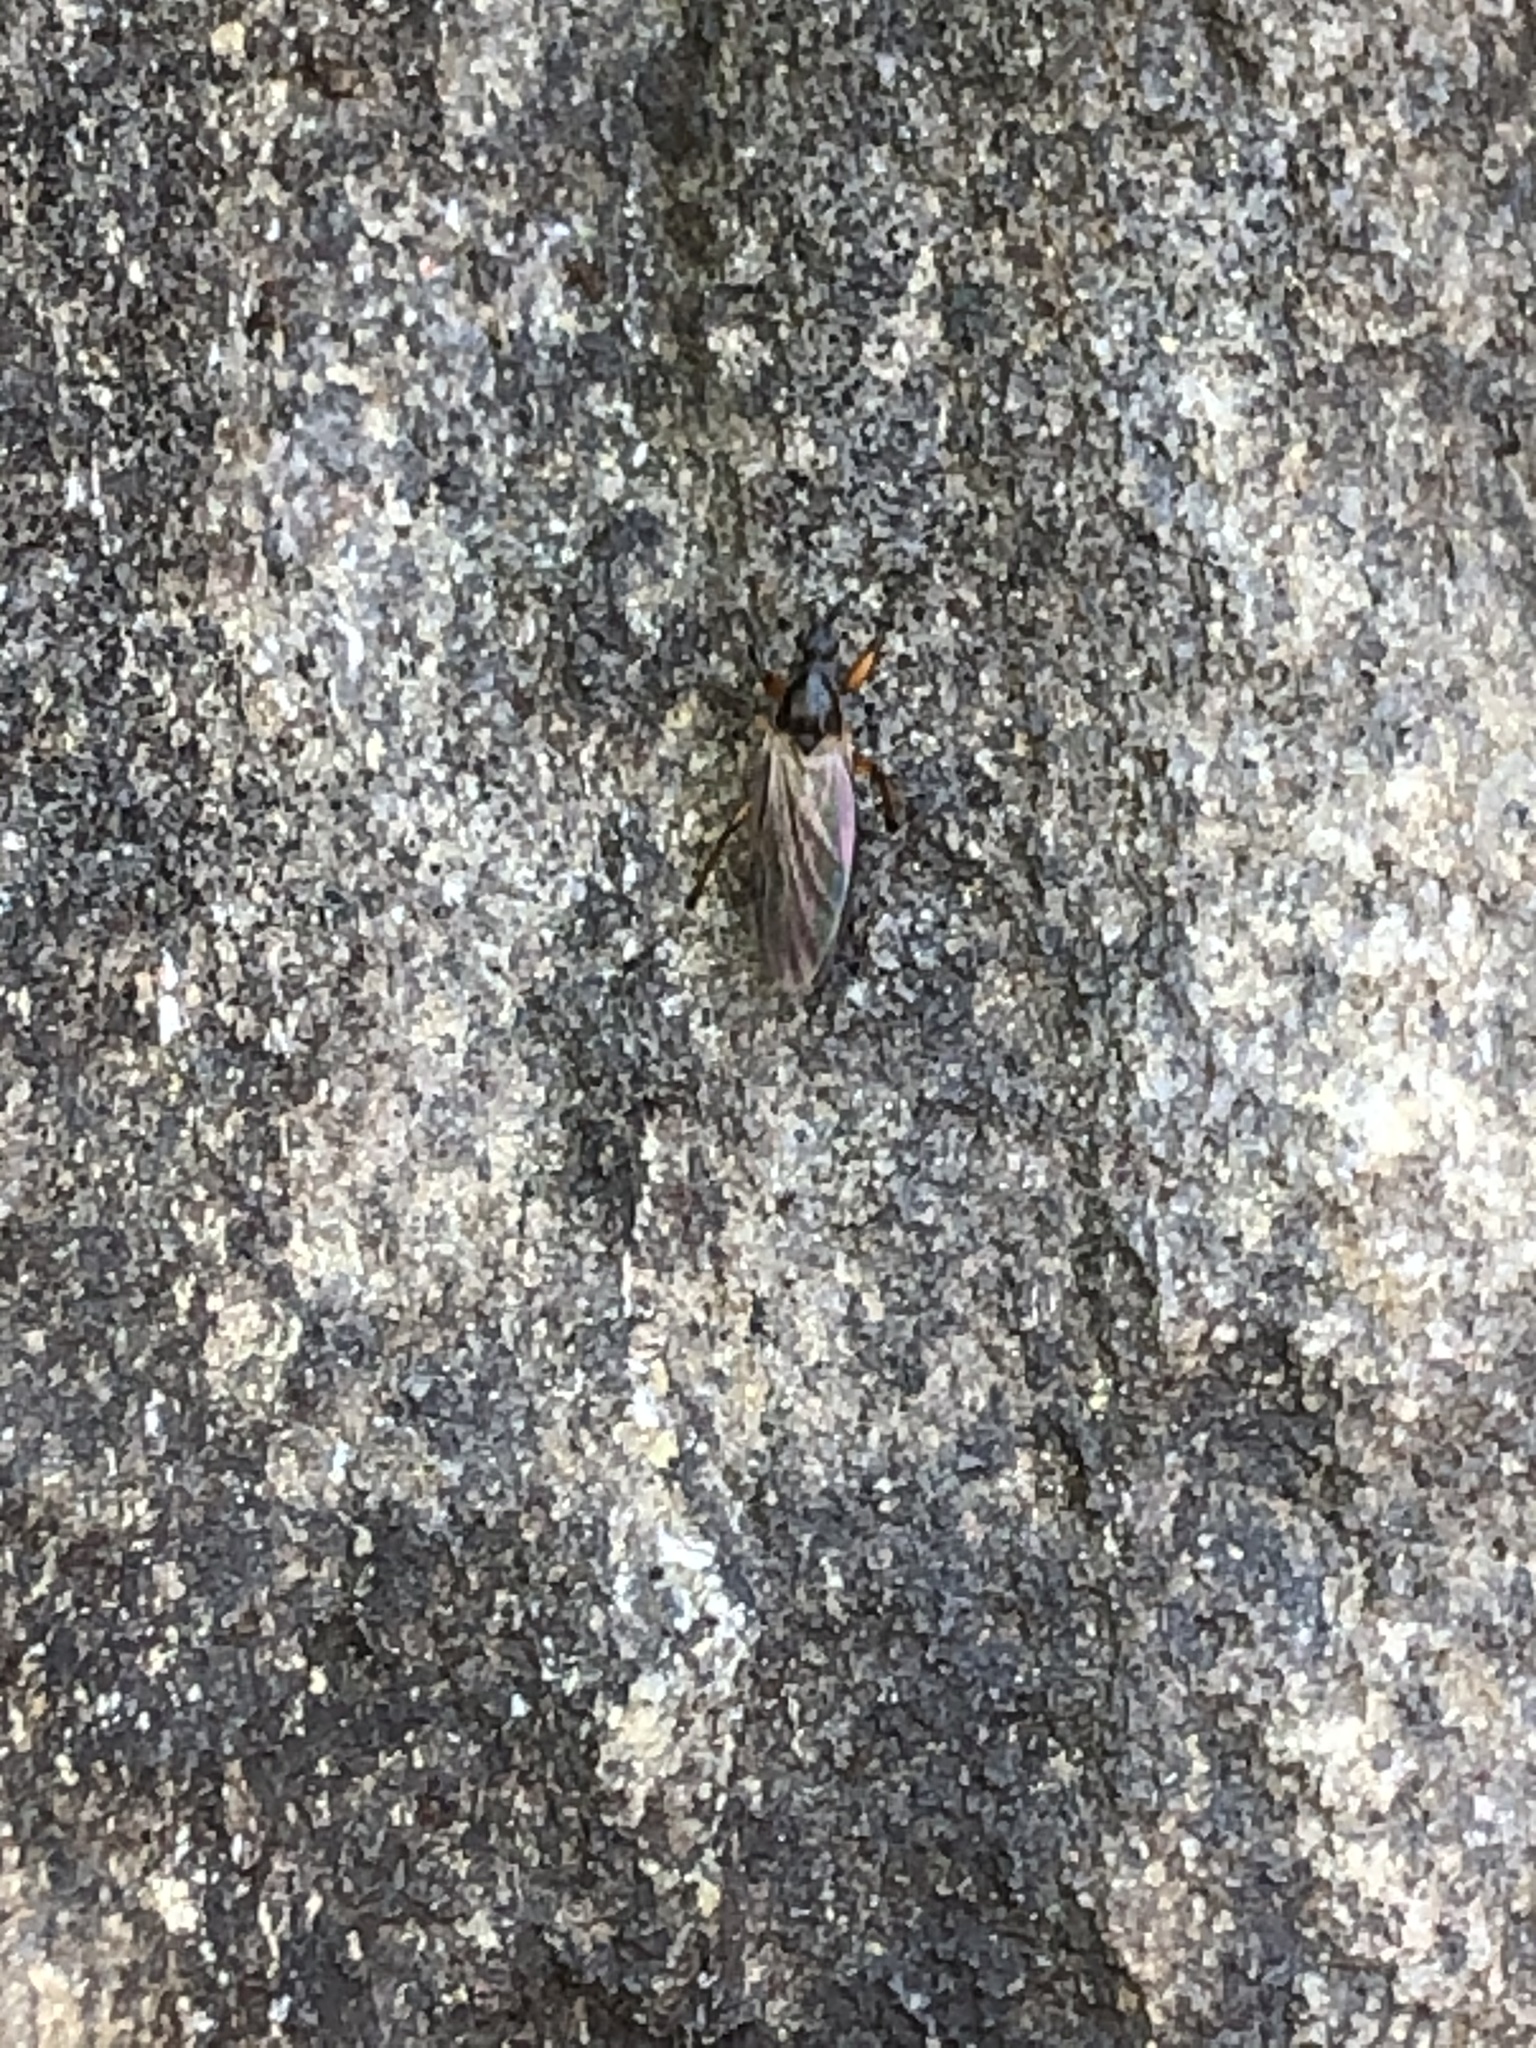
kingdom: Animalia
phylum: Arthropoda
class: Insecta
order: Diptera
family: Bibionidae
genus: Bibio
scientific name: Bibio
